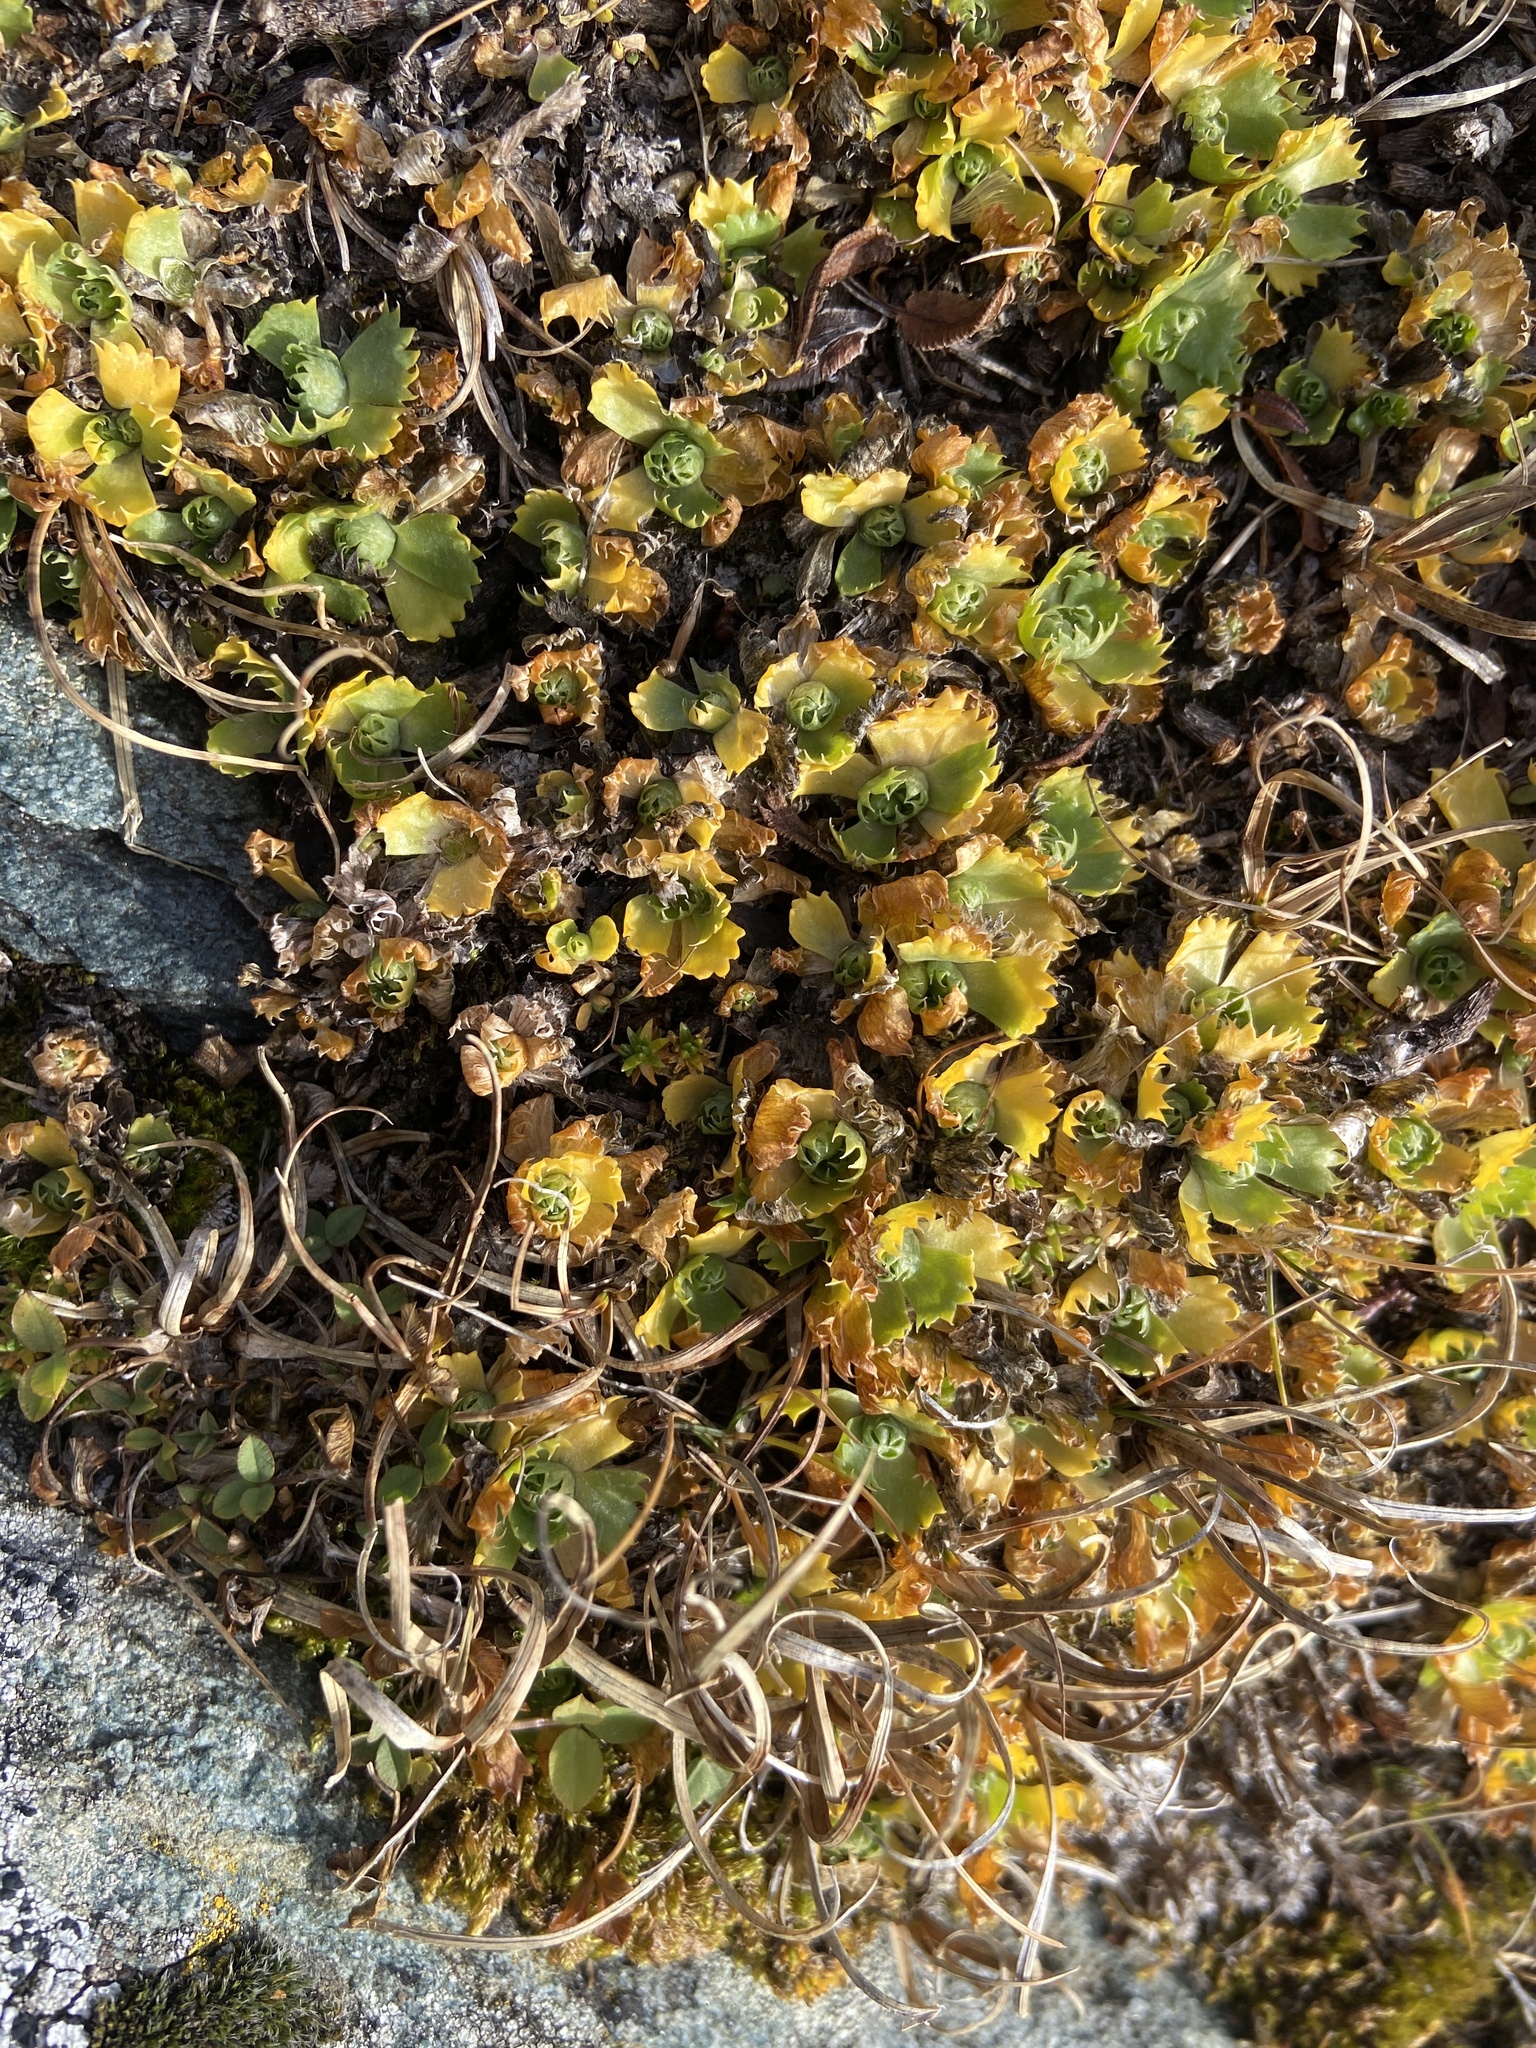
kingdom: Plantae
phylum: Tracheophyta
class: Magnoliopsida
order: Ericales
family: Primulaceae
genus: Primula
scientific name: Primula minima
